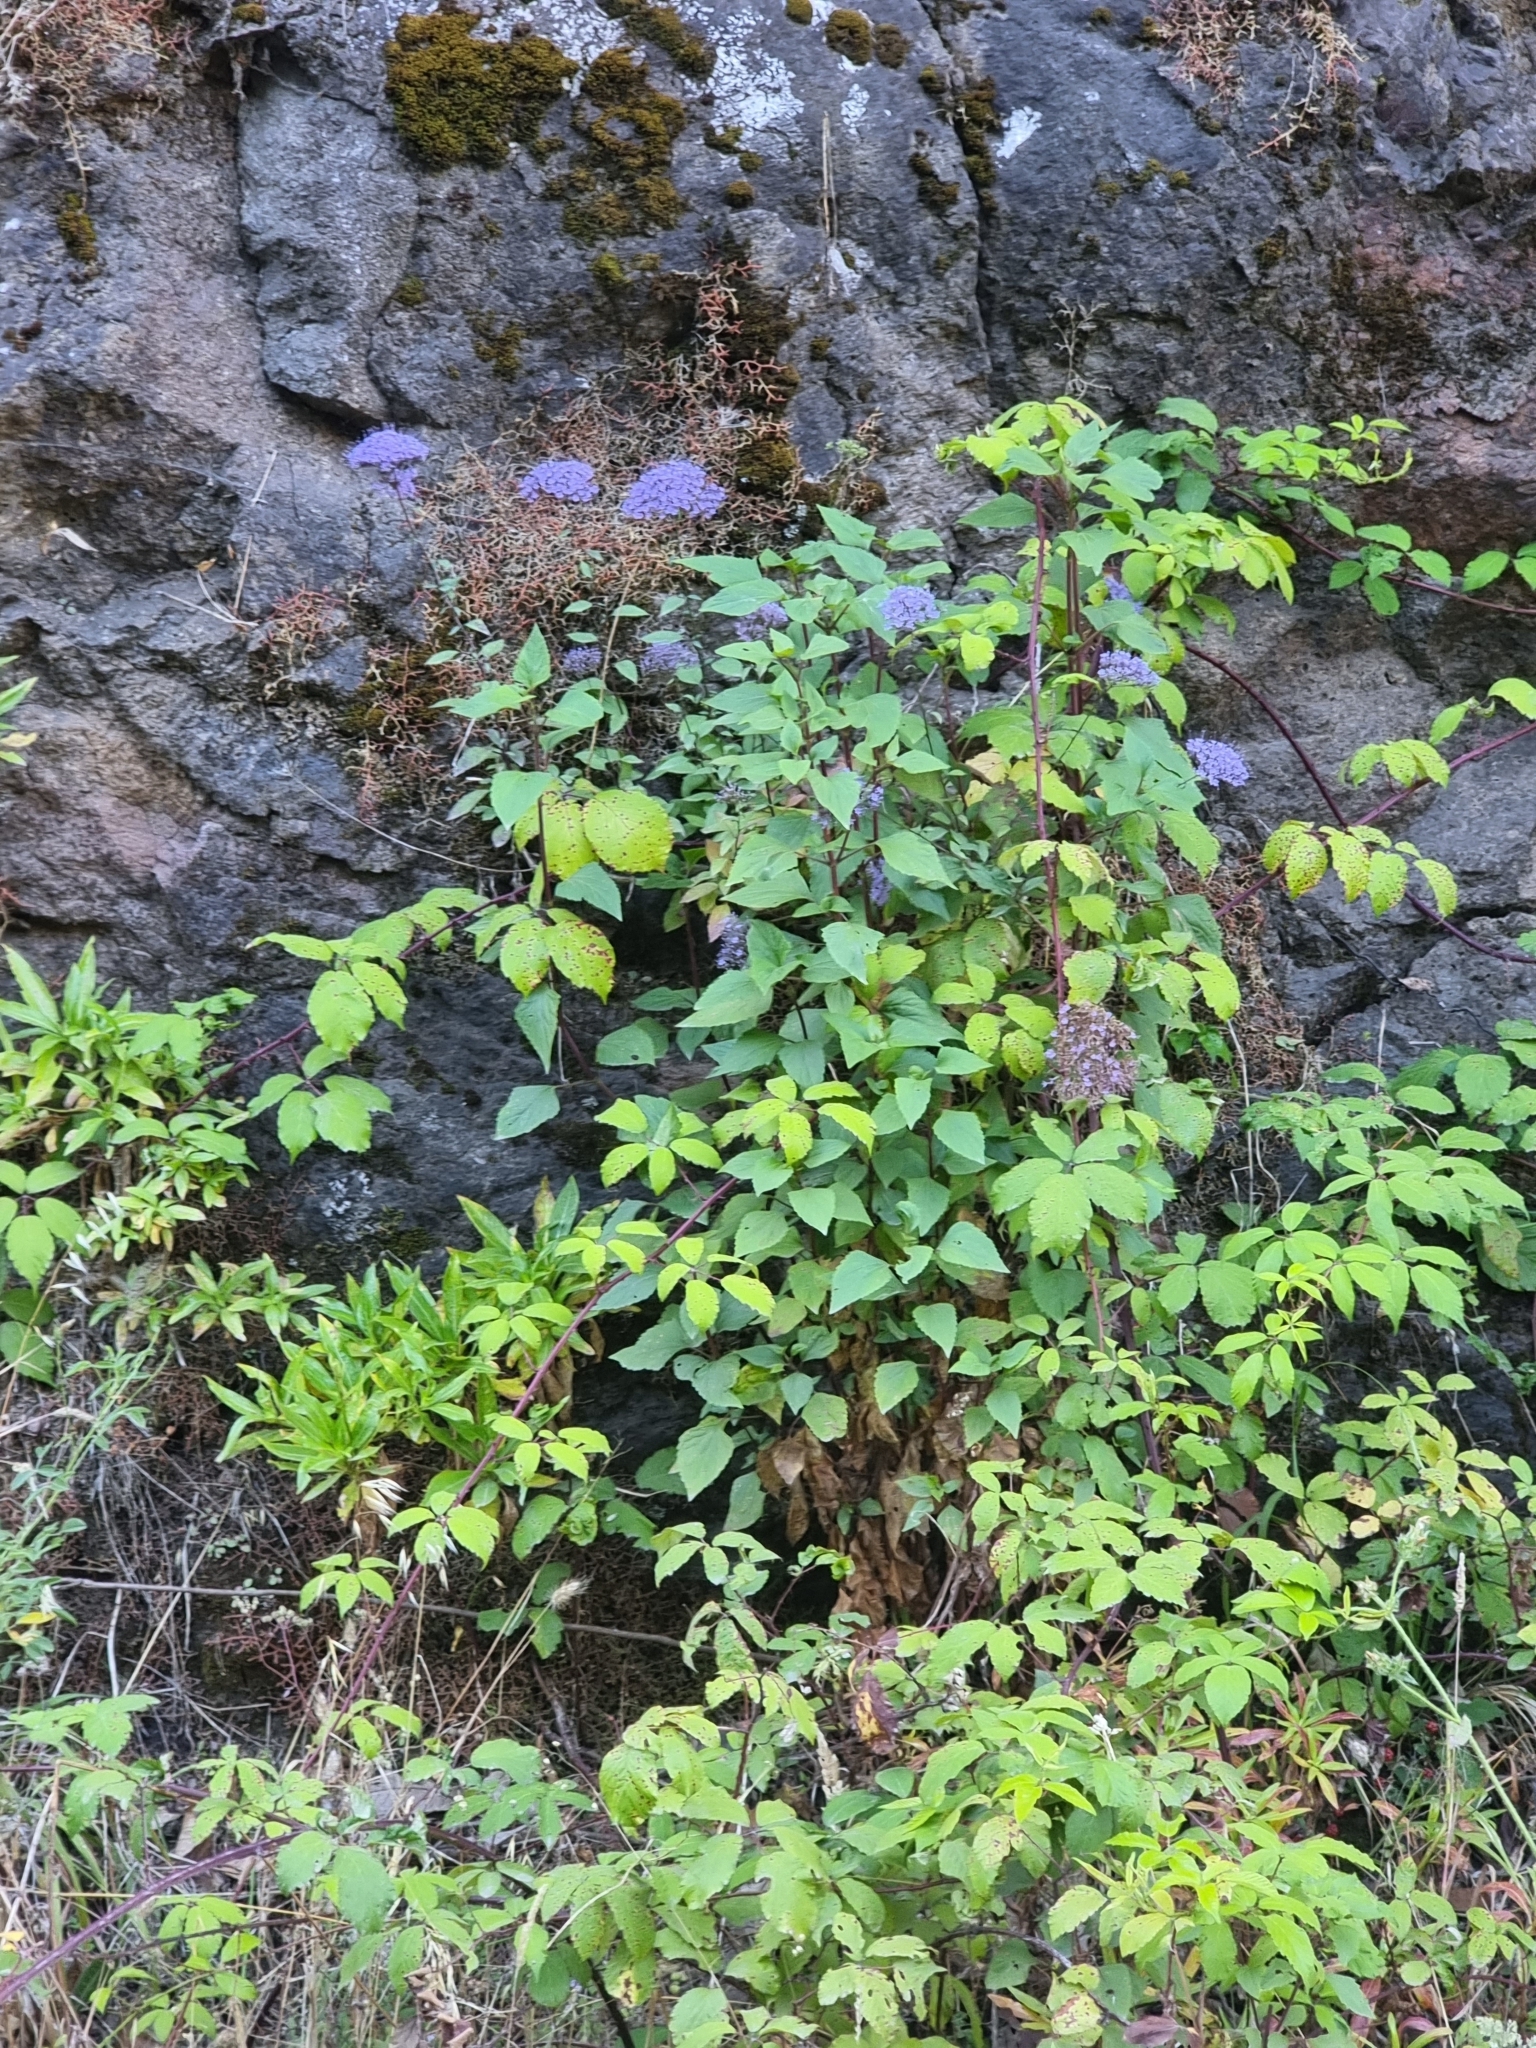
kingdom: Plantae
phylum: Tracheophyta
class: Magnoliopsida
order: Asterales
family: Campanulaceae
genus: Trachelium
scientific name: Trachelium caeruleum
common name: Throatwort
